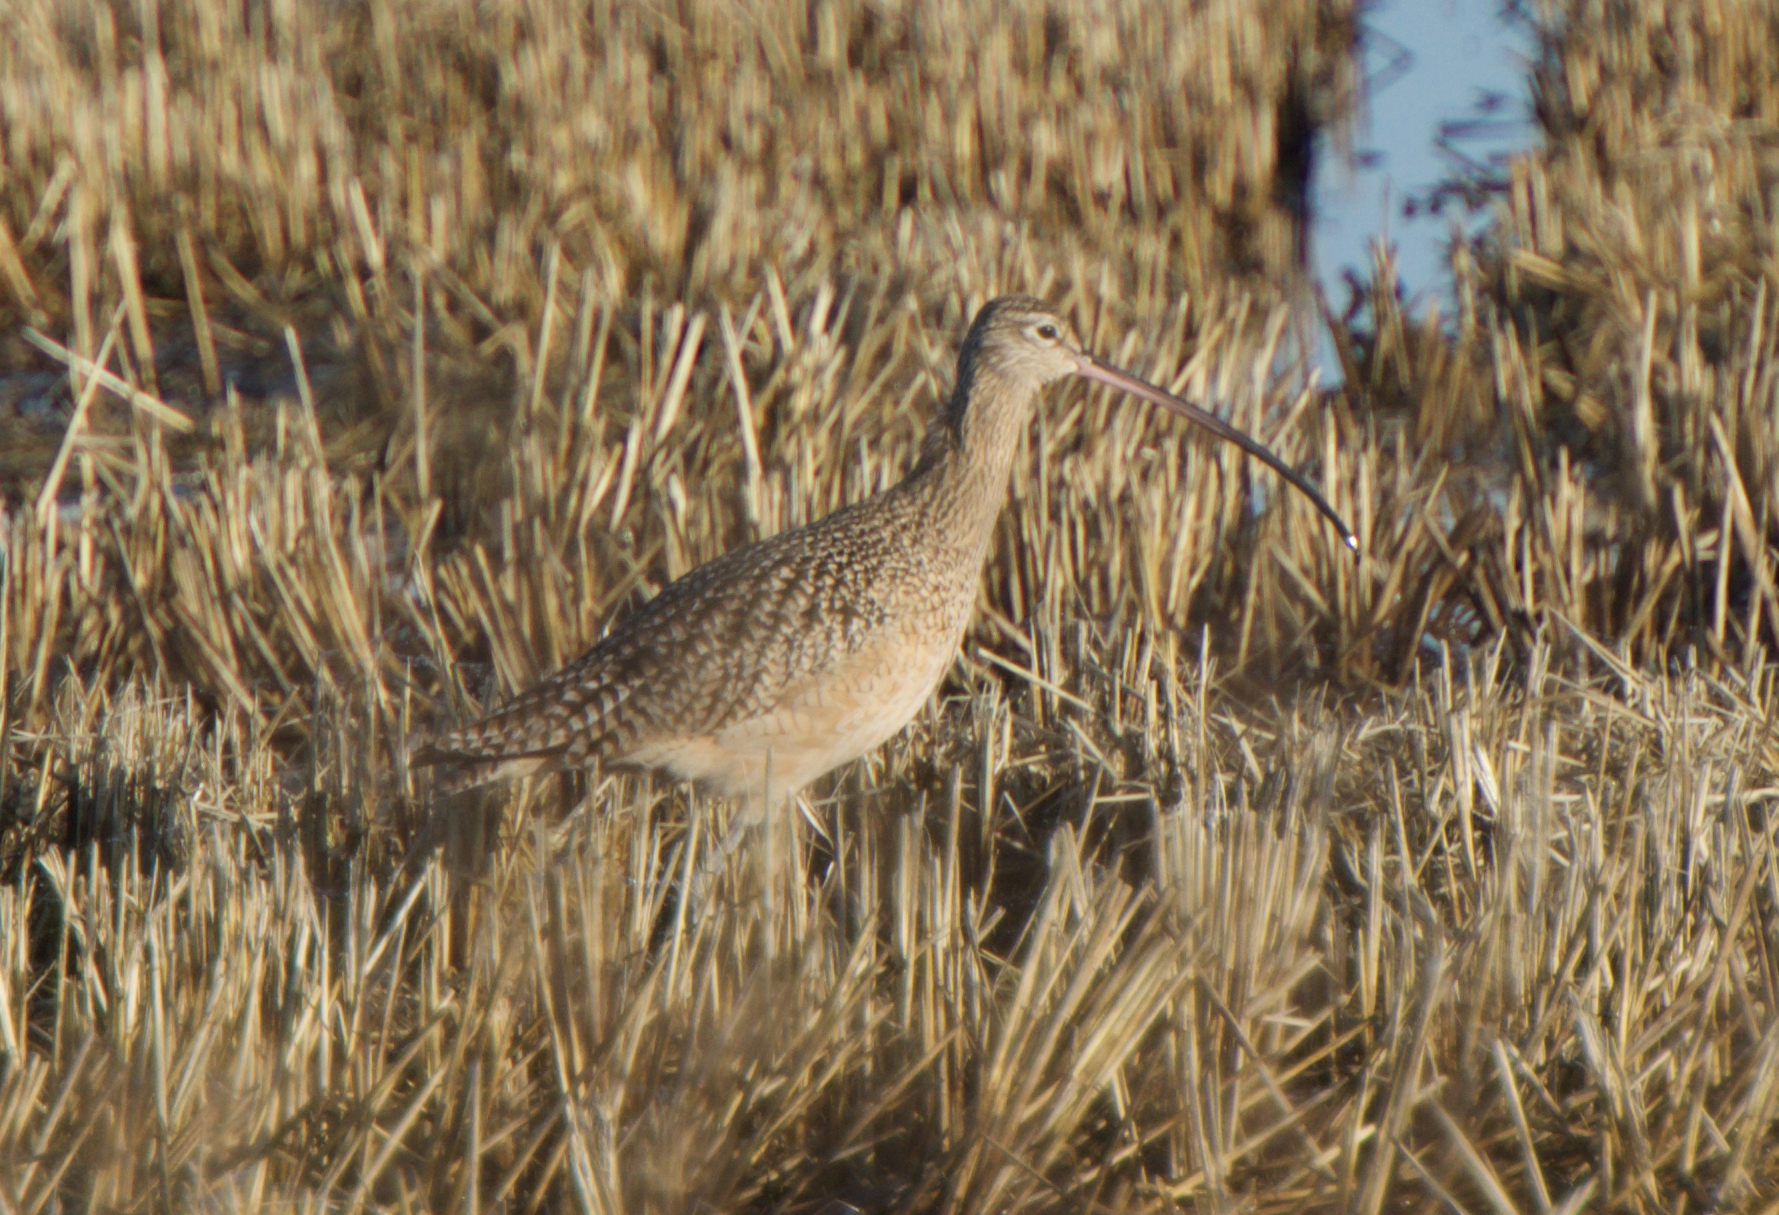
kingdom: Animalia
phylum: Chordata
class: Aves
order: Charadriiformes
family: Scolopacidae
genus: Numenius
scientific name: Numenius americanus
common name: Long-billed curlew
